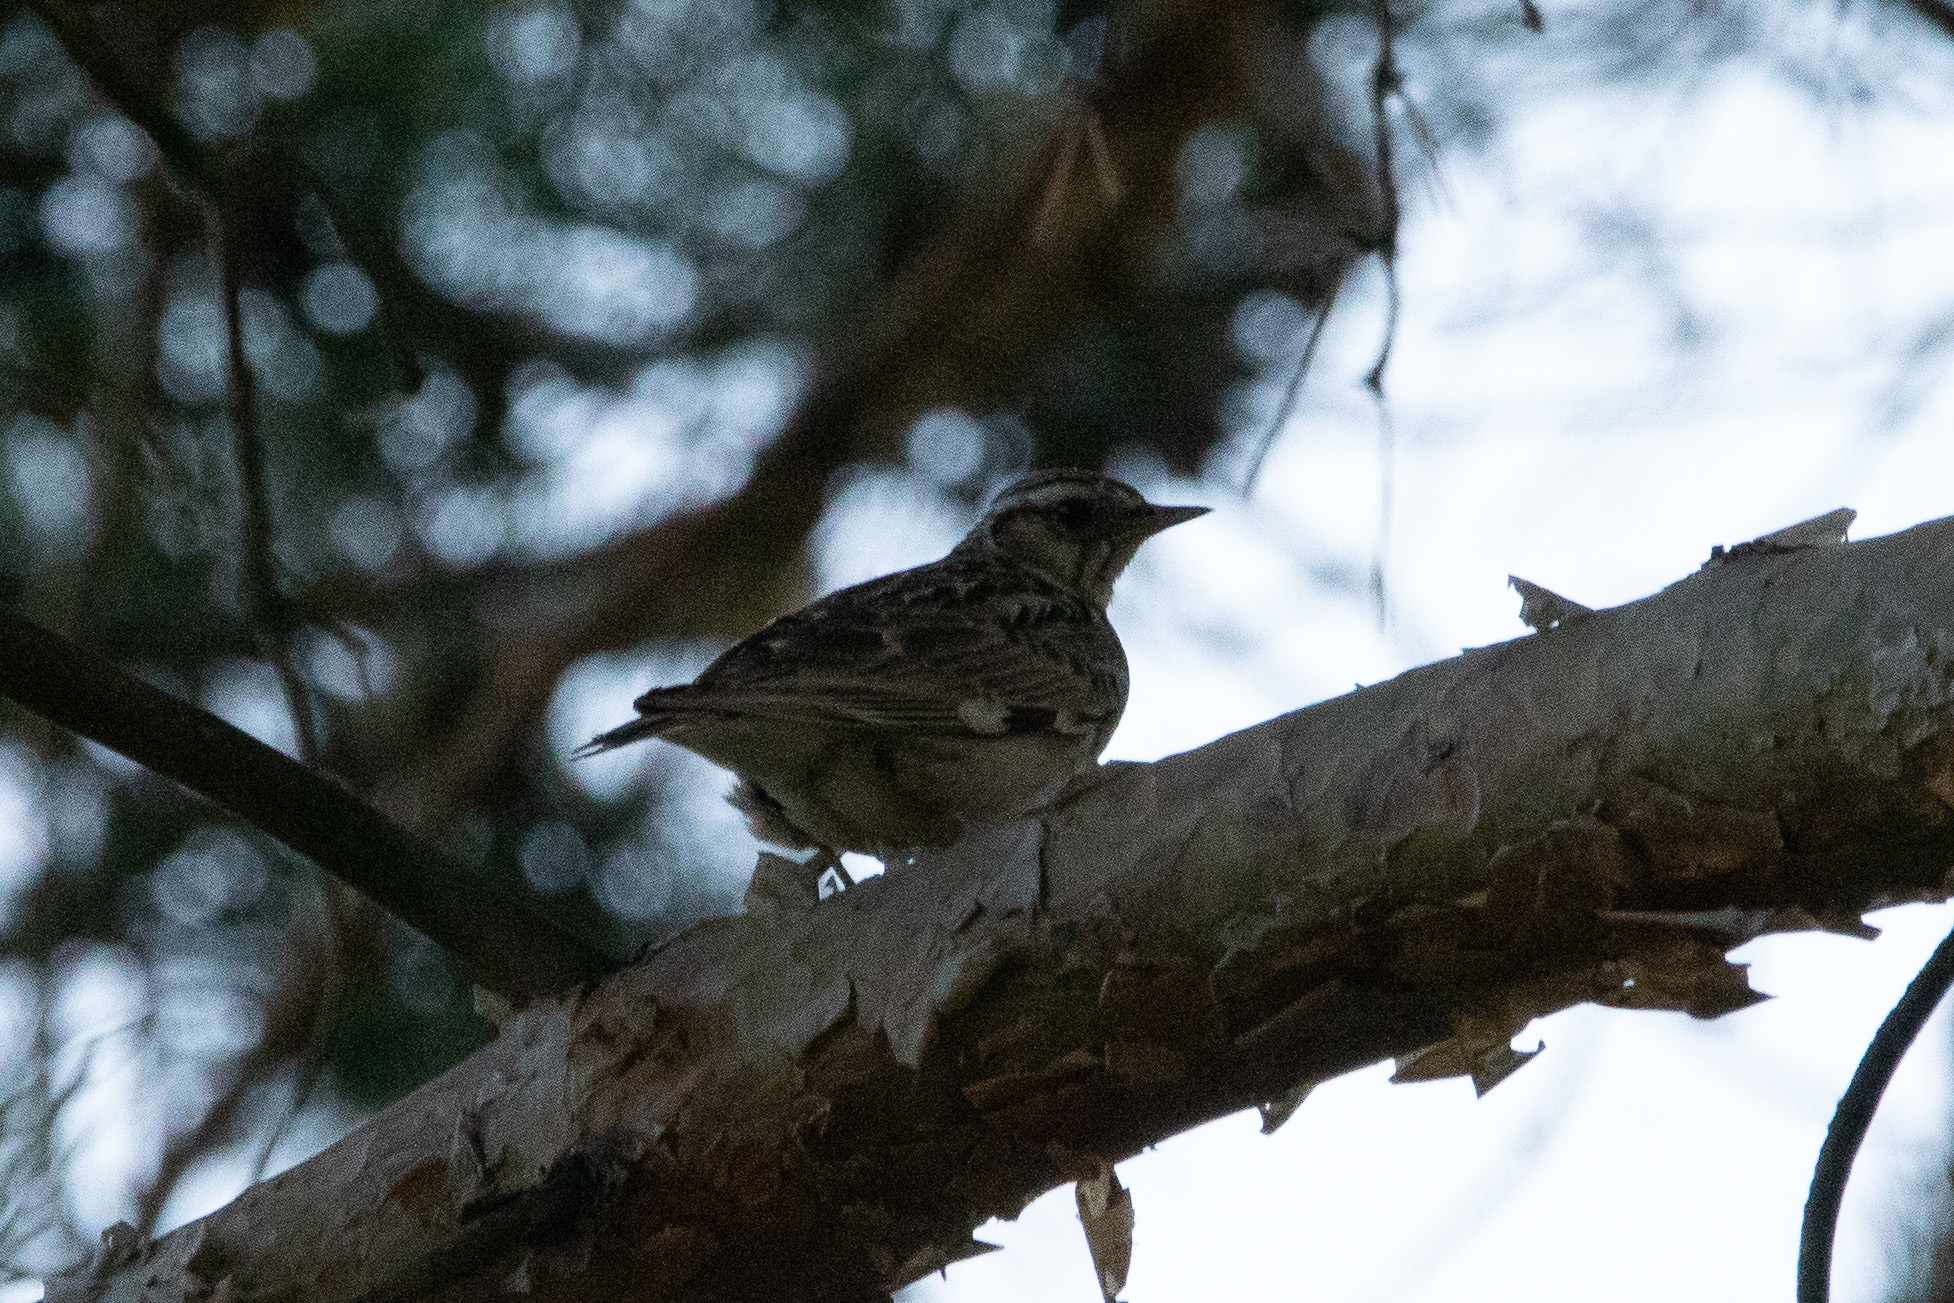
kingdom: Animalia
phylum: Chordata
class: Aves
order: Passeriformes
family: Alaudidae
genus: Lullula
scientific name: Lullula arborea
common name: Woodlark
